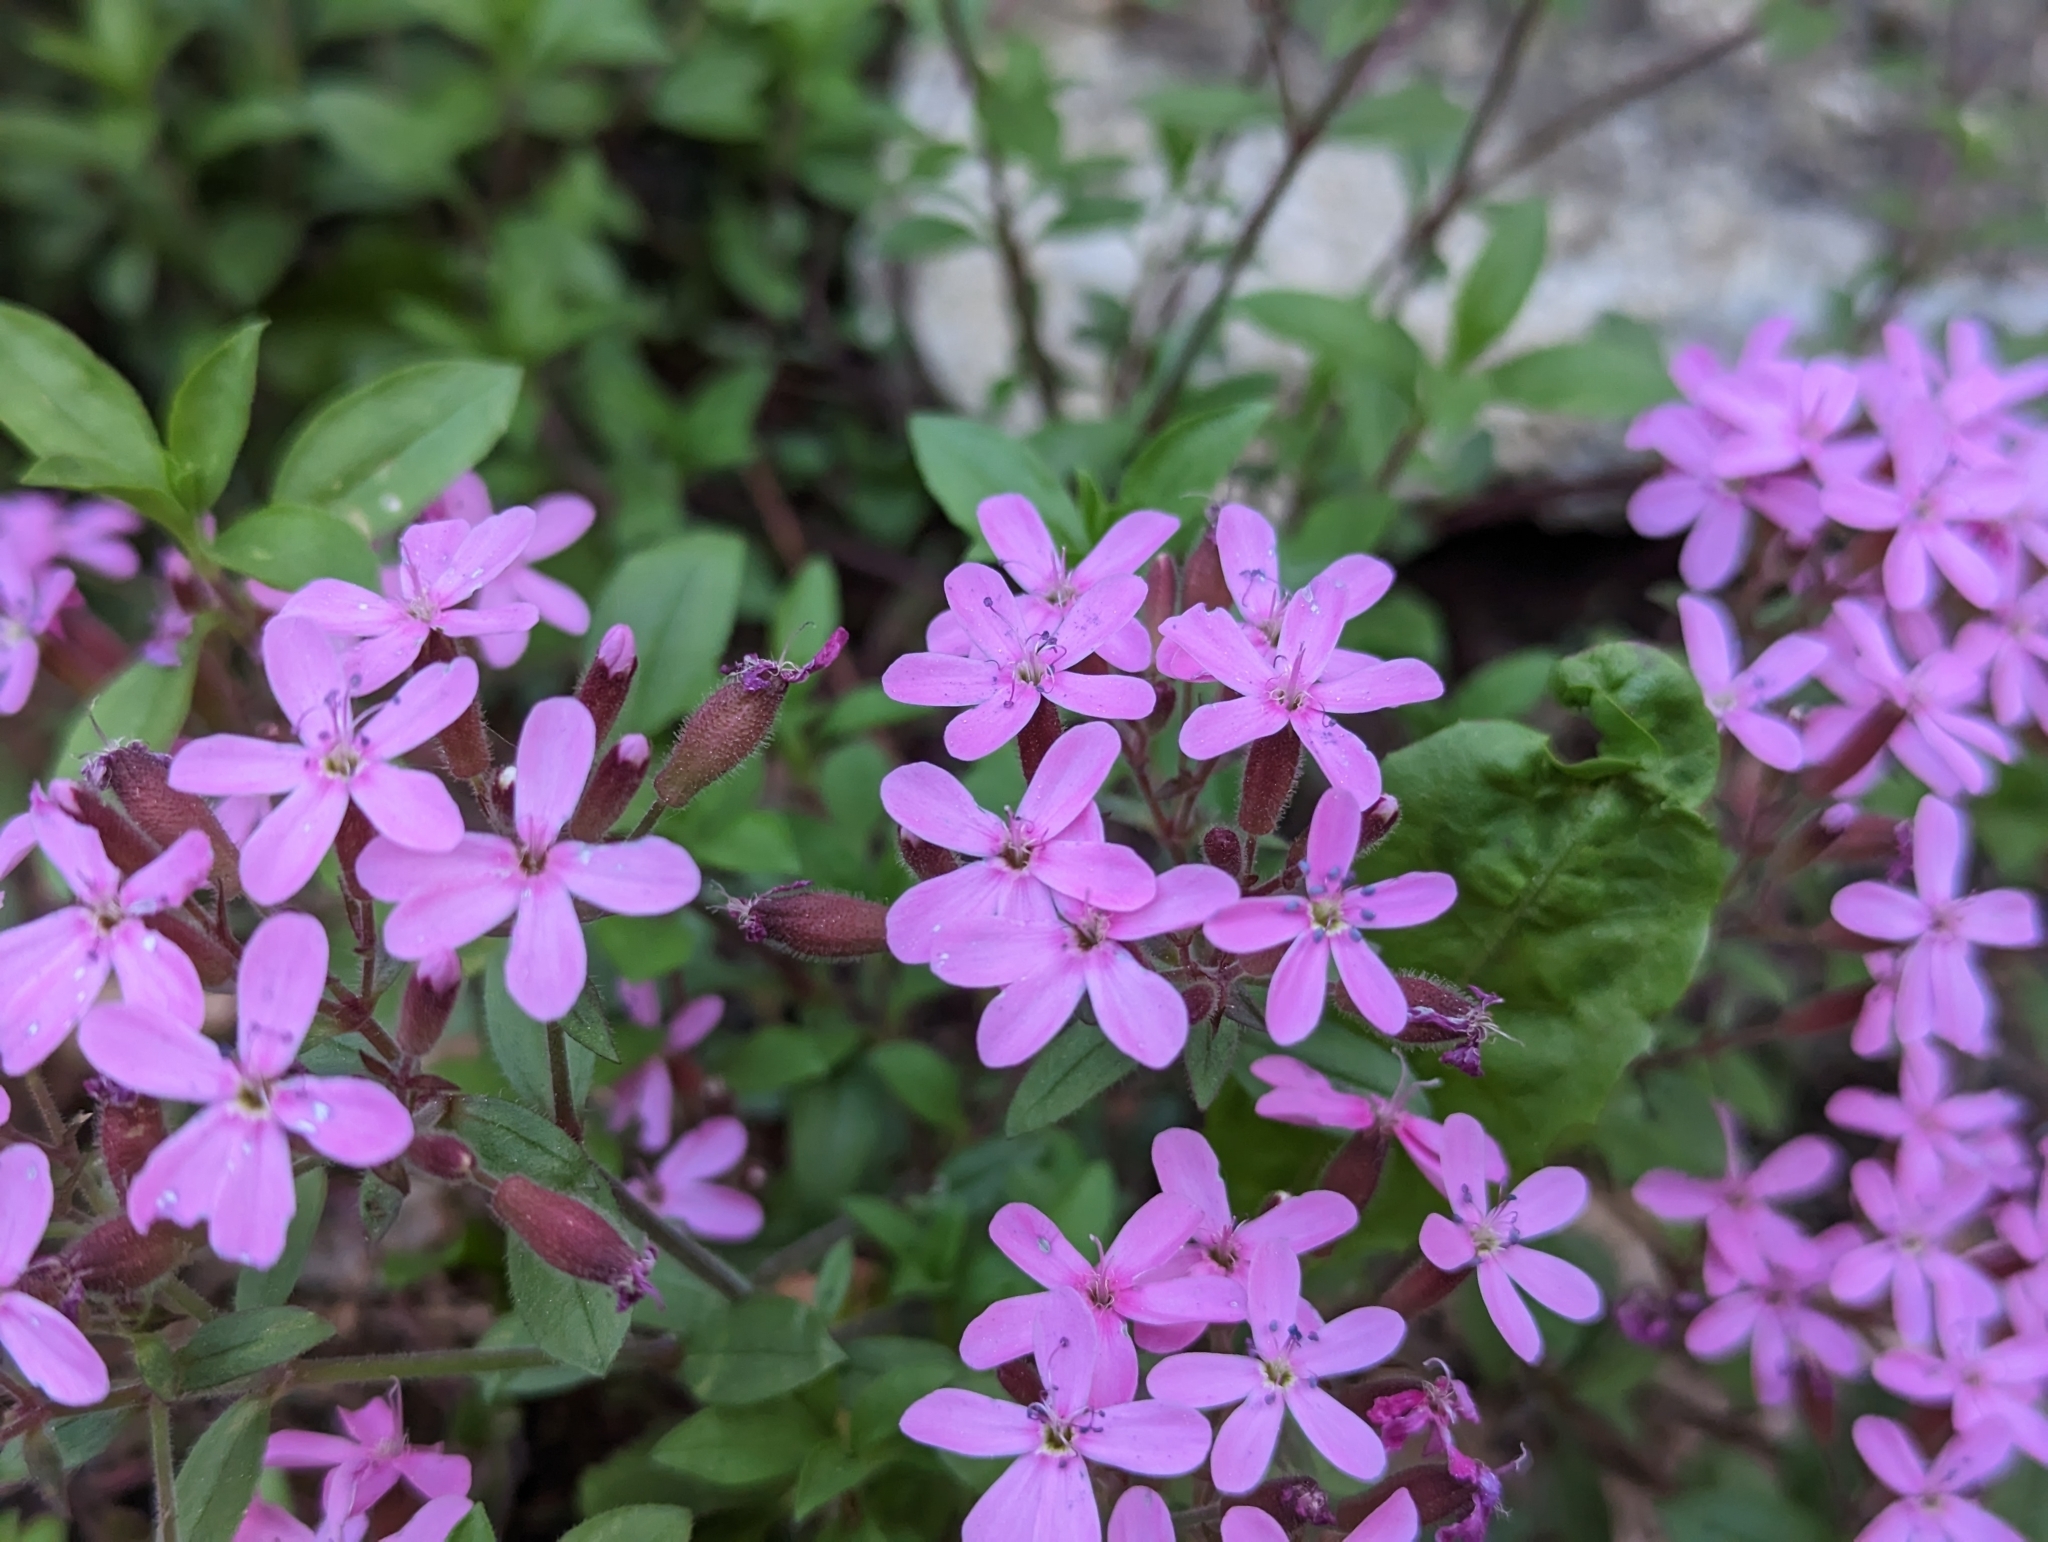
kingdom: Plantae
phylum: Tracheophyta
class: Magnoliopsida
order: Caryophyllales
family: Caryophyllaceae
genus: Saponaria
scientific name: Saponaria ocymoides
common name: Rock soapwort
